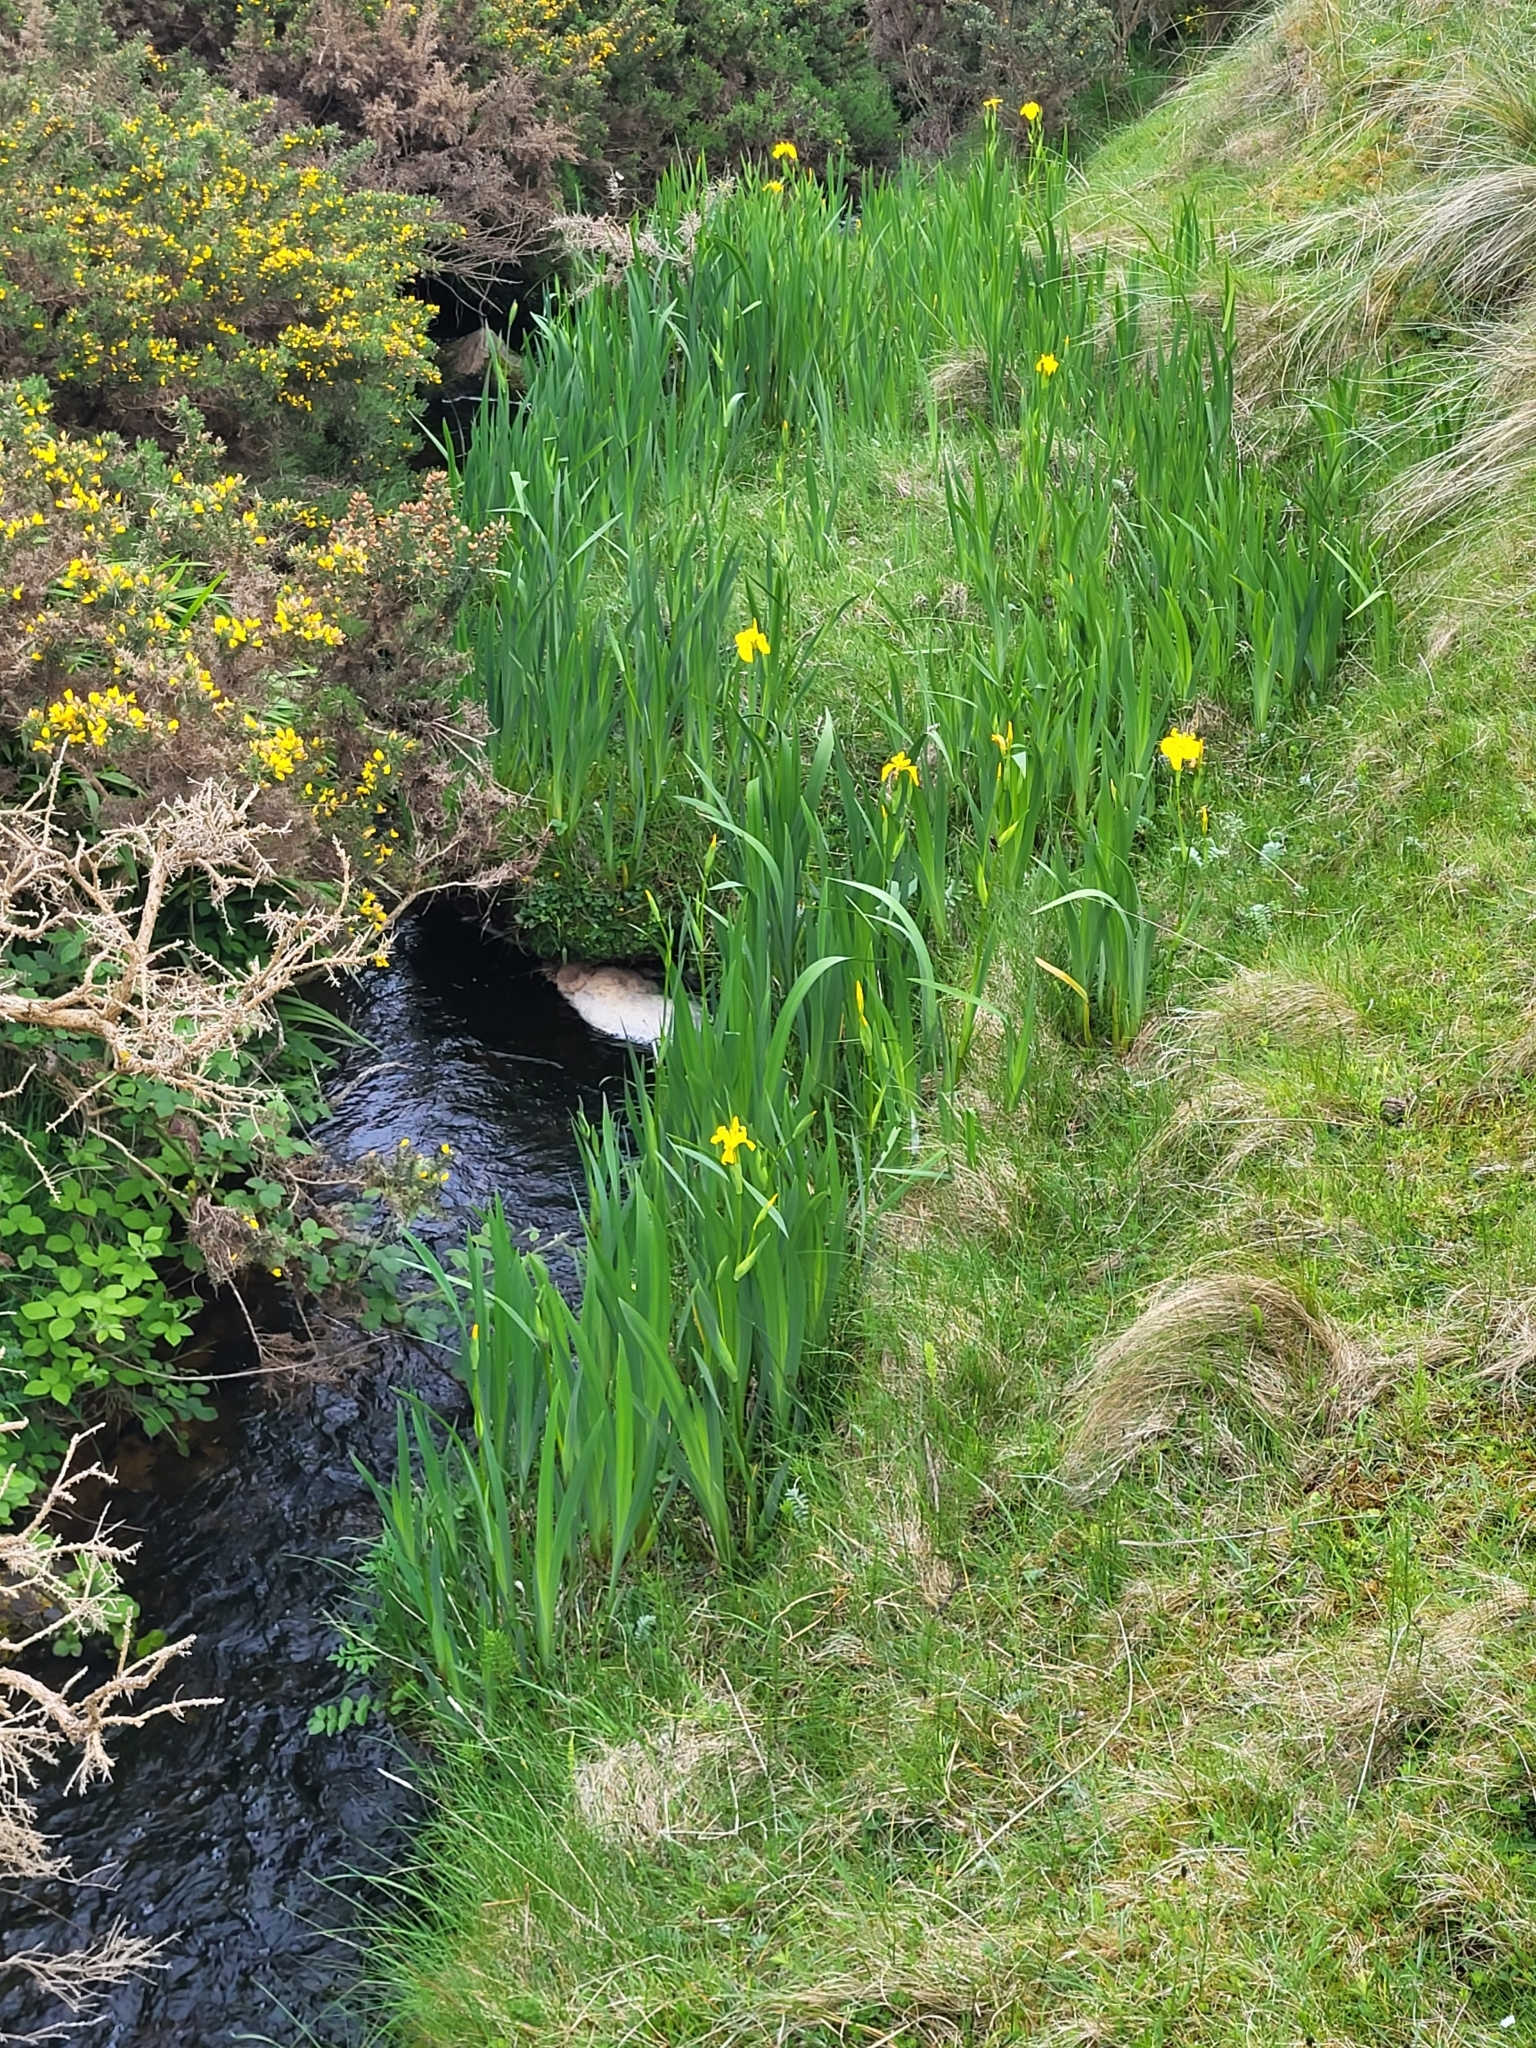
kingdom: Plantae
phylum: Tracheophyta
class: Liliopsida
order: Asparagales
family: Iridaceae
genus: Iris
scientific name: Iris pseudacorus
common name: Yellow flag
